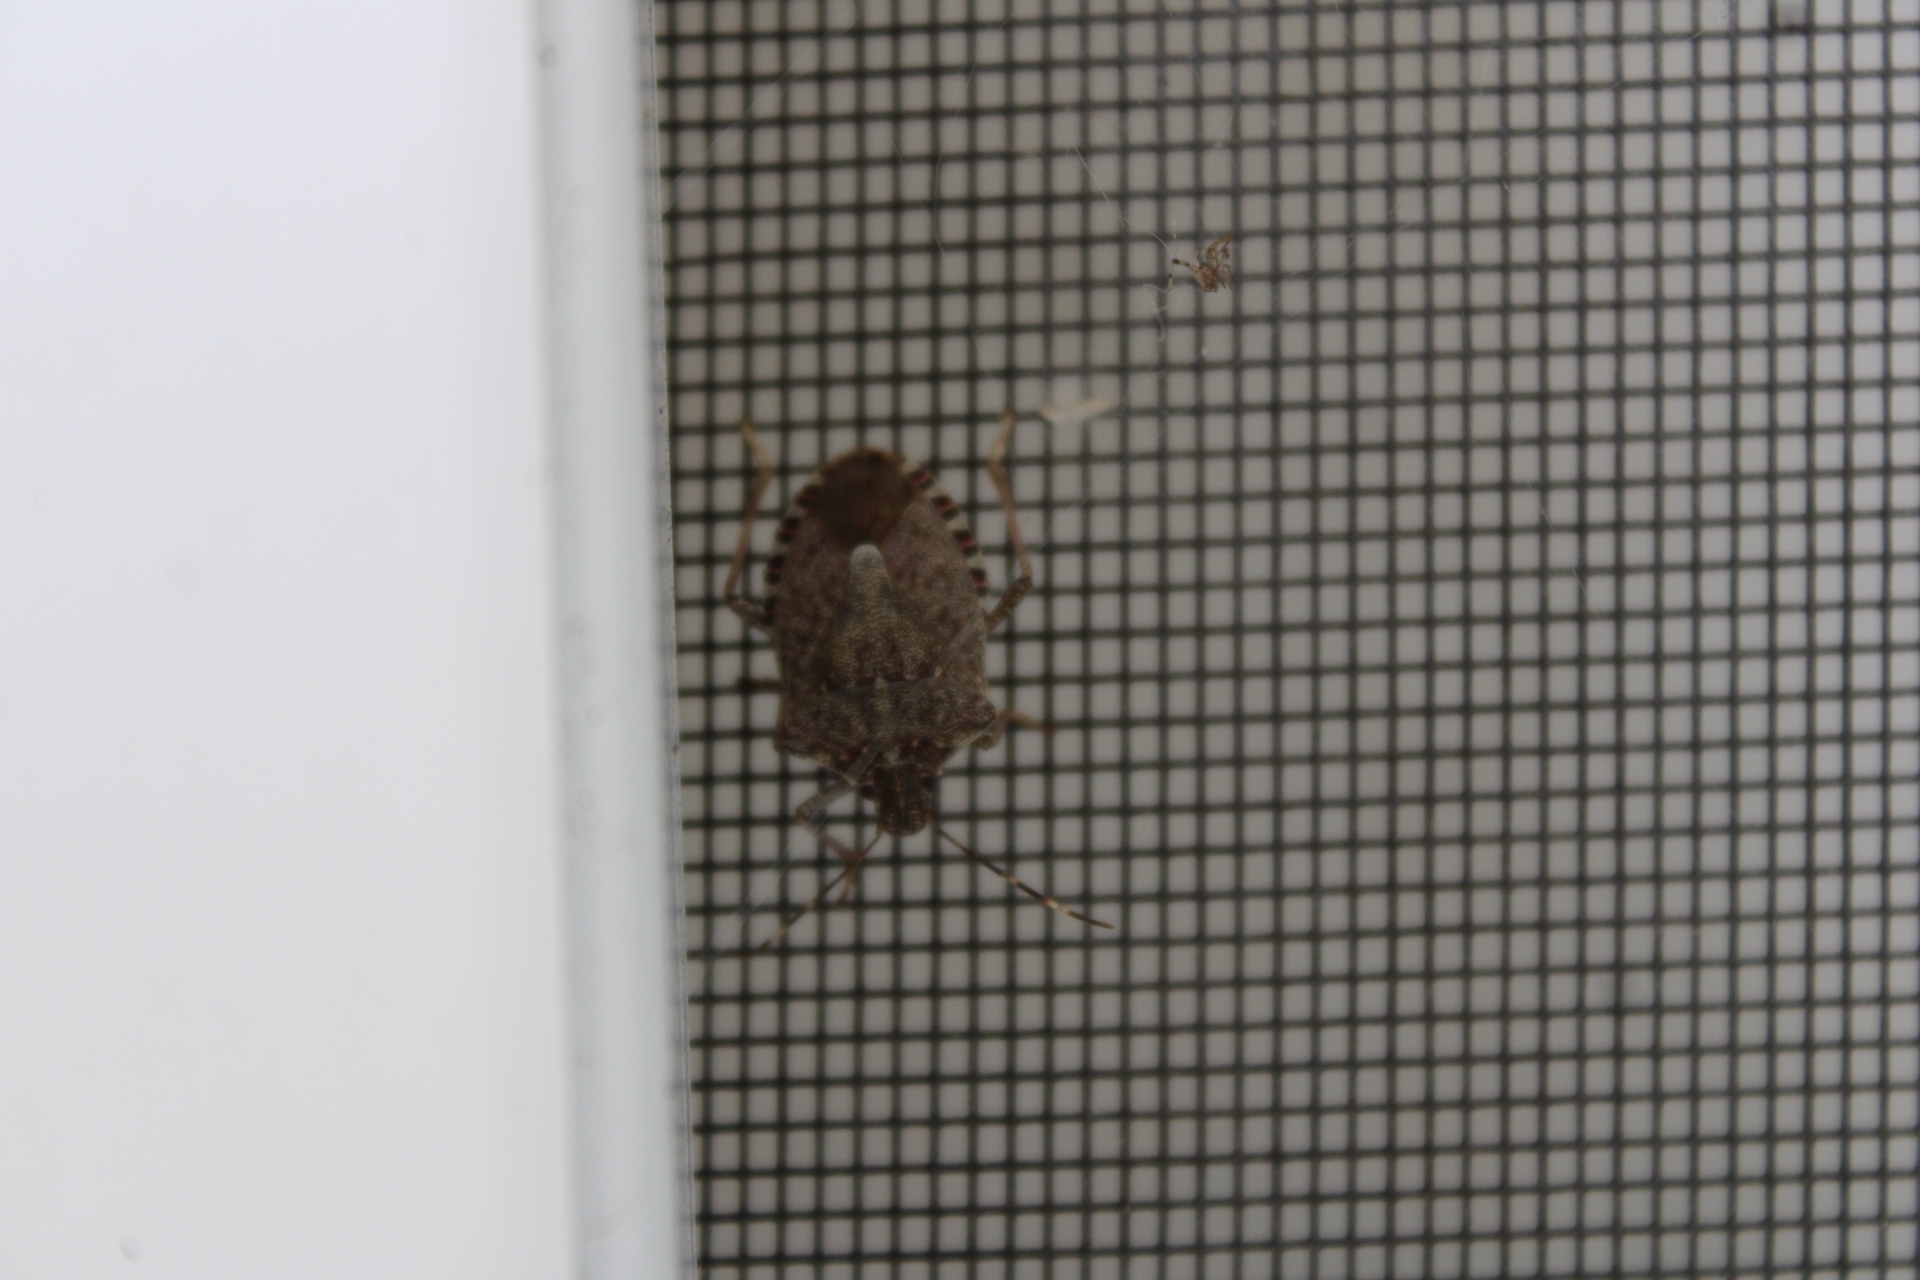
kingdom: Animalia
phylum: Arthropoda
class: Insecta
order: Hemiptera
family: Pentatomidae
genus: Halyomorpha
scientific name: Halyomorpha halys
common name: Brown marmorated stink bug
